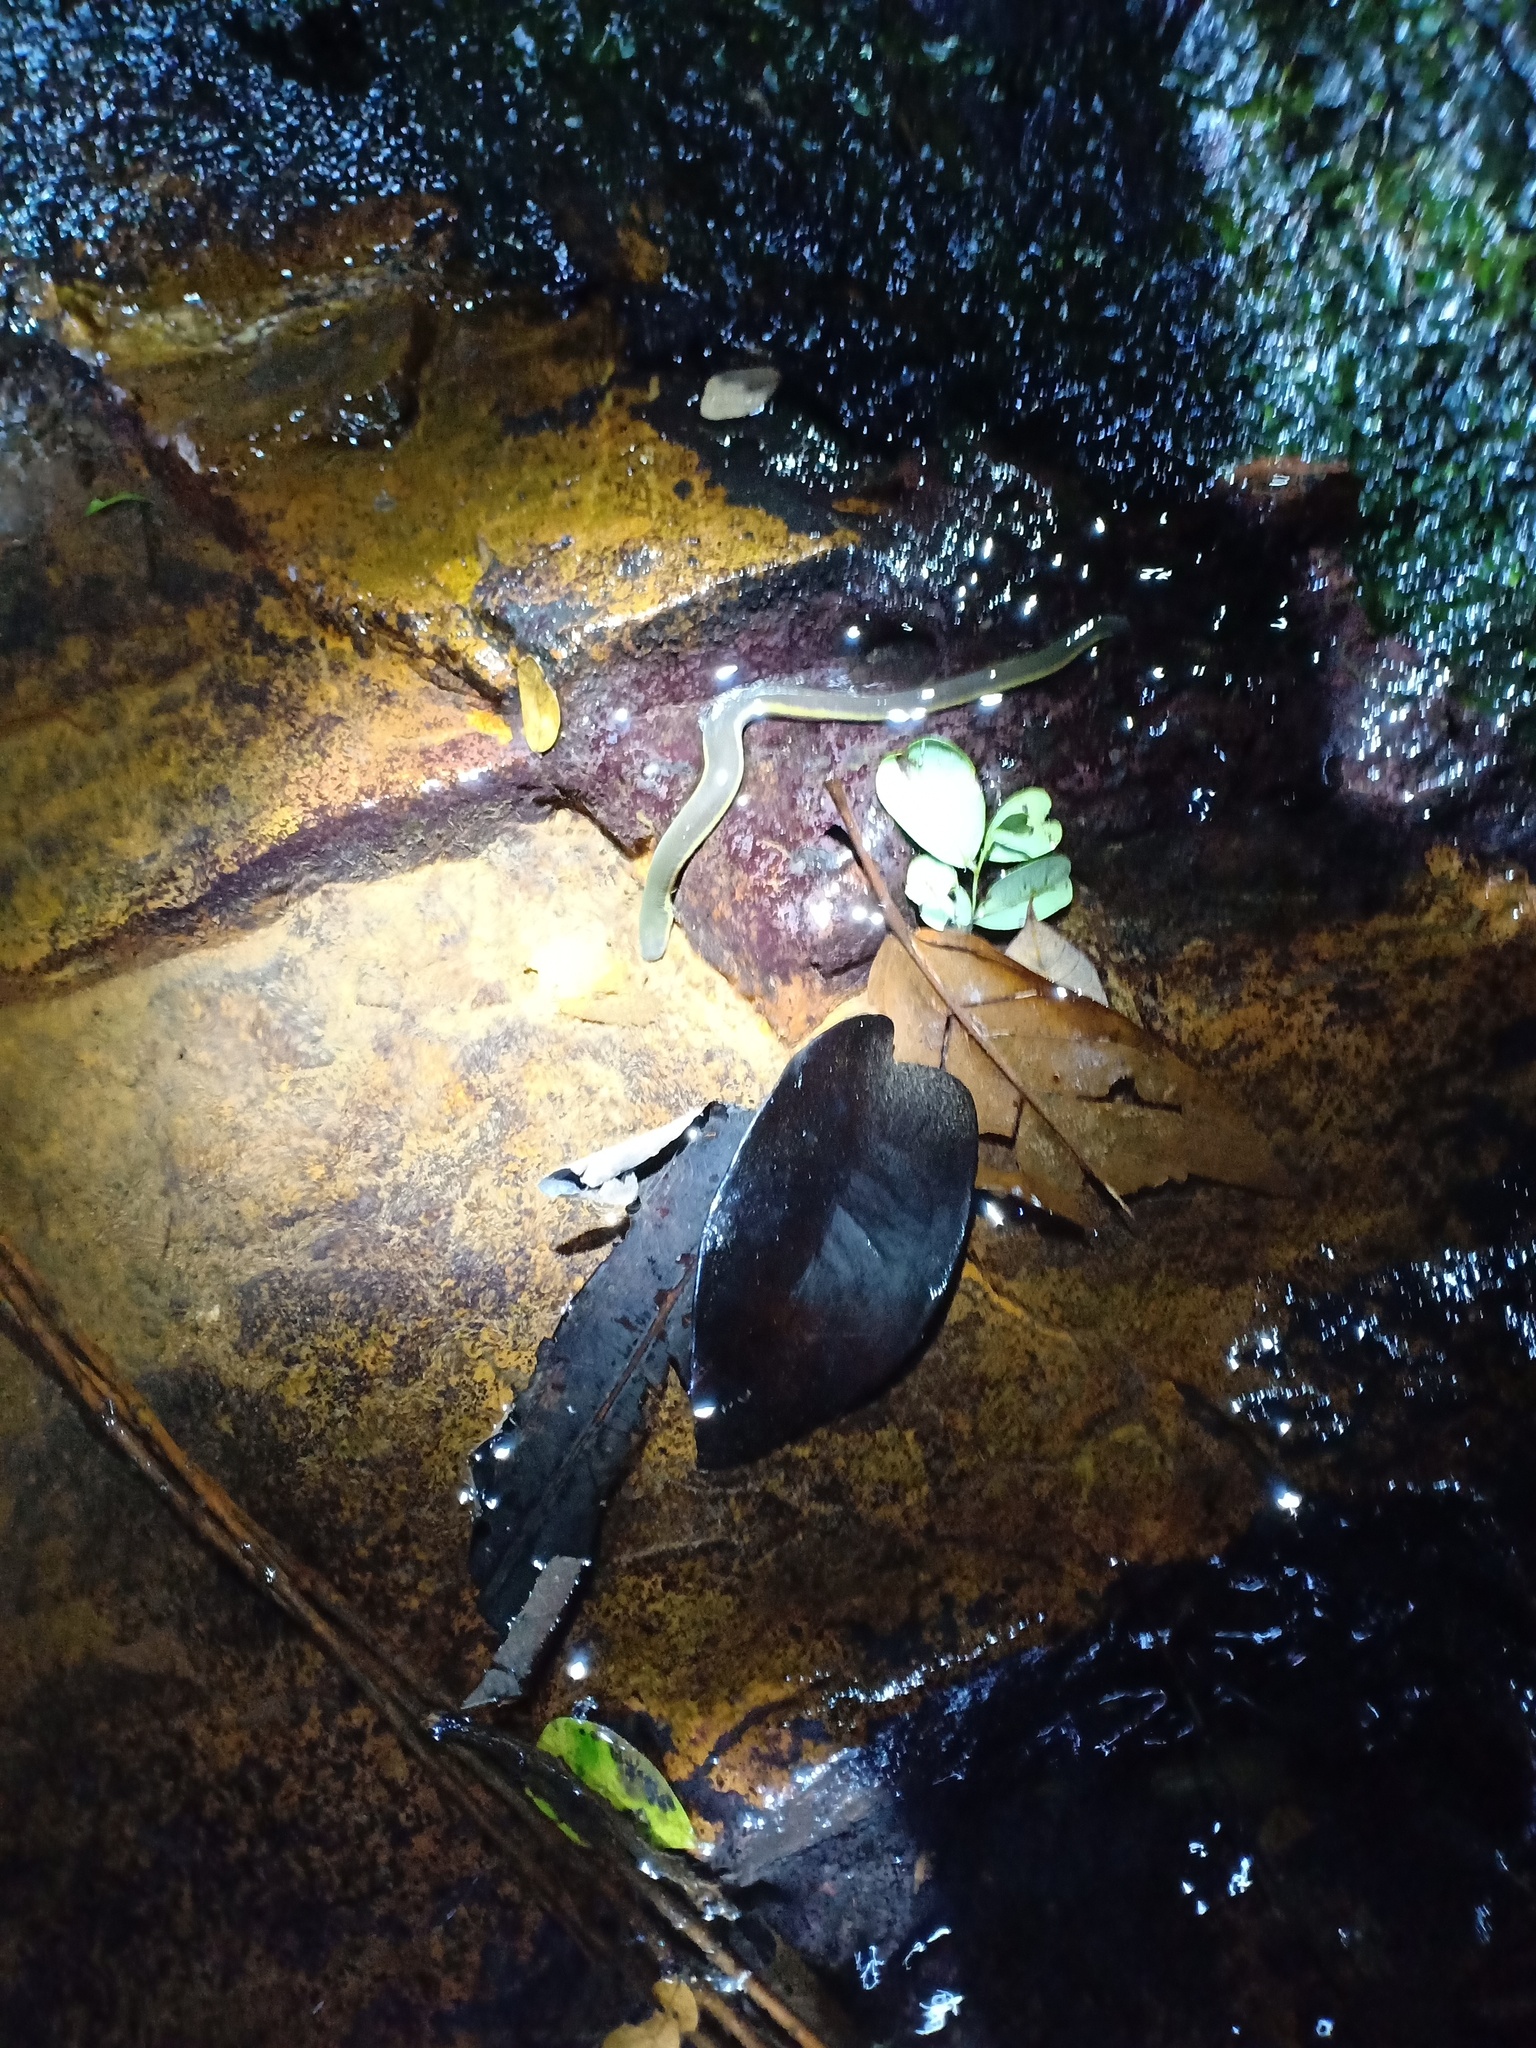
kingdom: Animalia
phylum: Chordata
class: Amphibia
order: Gymnophiona
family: Ichthyophiidae
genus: Ichthyophis
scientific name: Ichthyophis supachaii
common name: Hillstream caecilian
